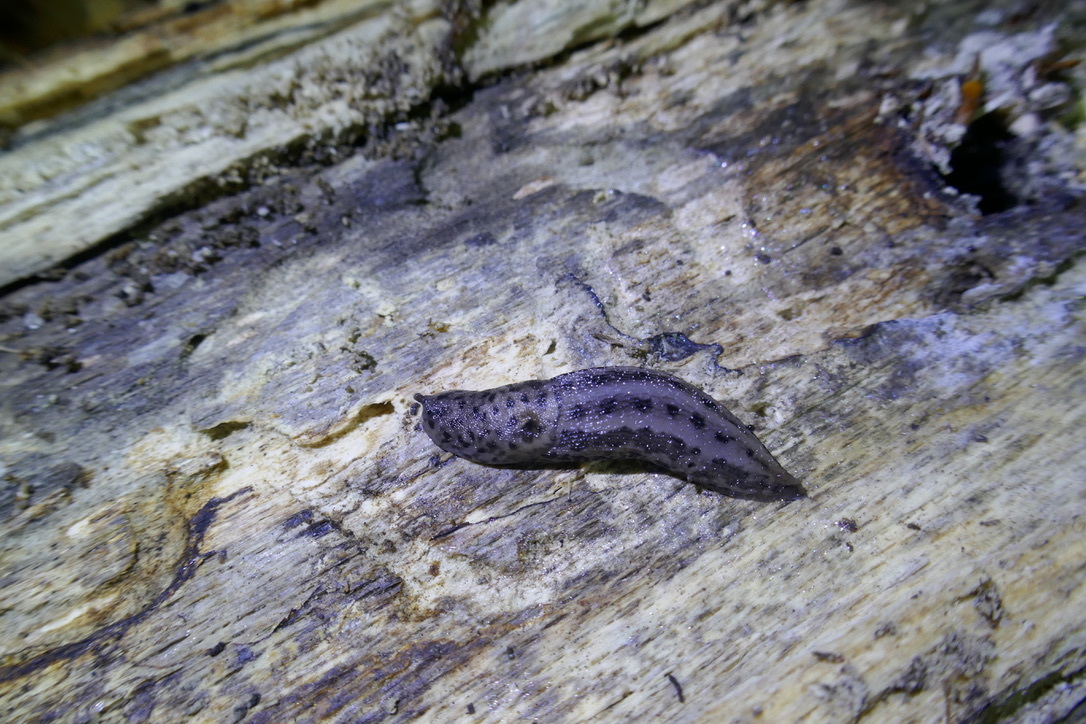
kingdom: Animalia
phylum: Mollusca
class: Gastropoda
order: Stylommatophora
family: Limacidae
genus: Limax
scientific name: Limax maximus
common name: Great grey slug
